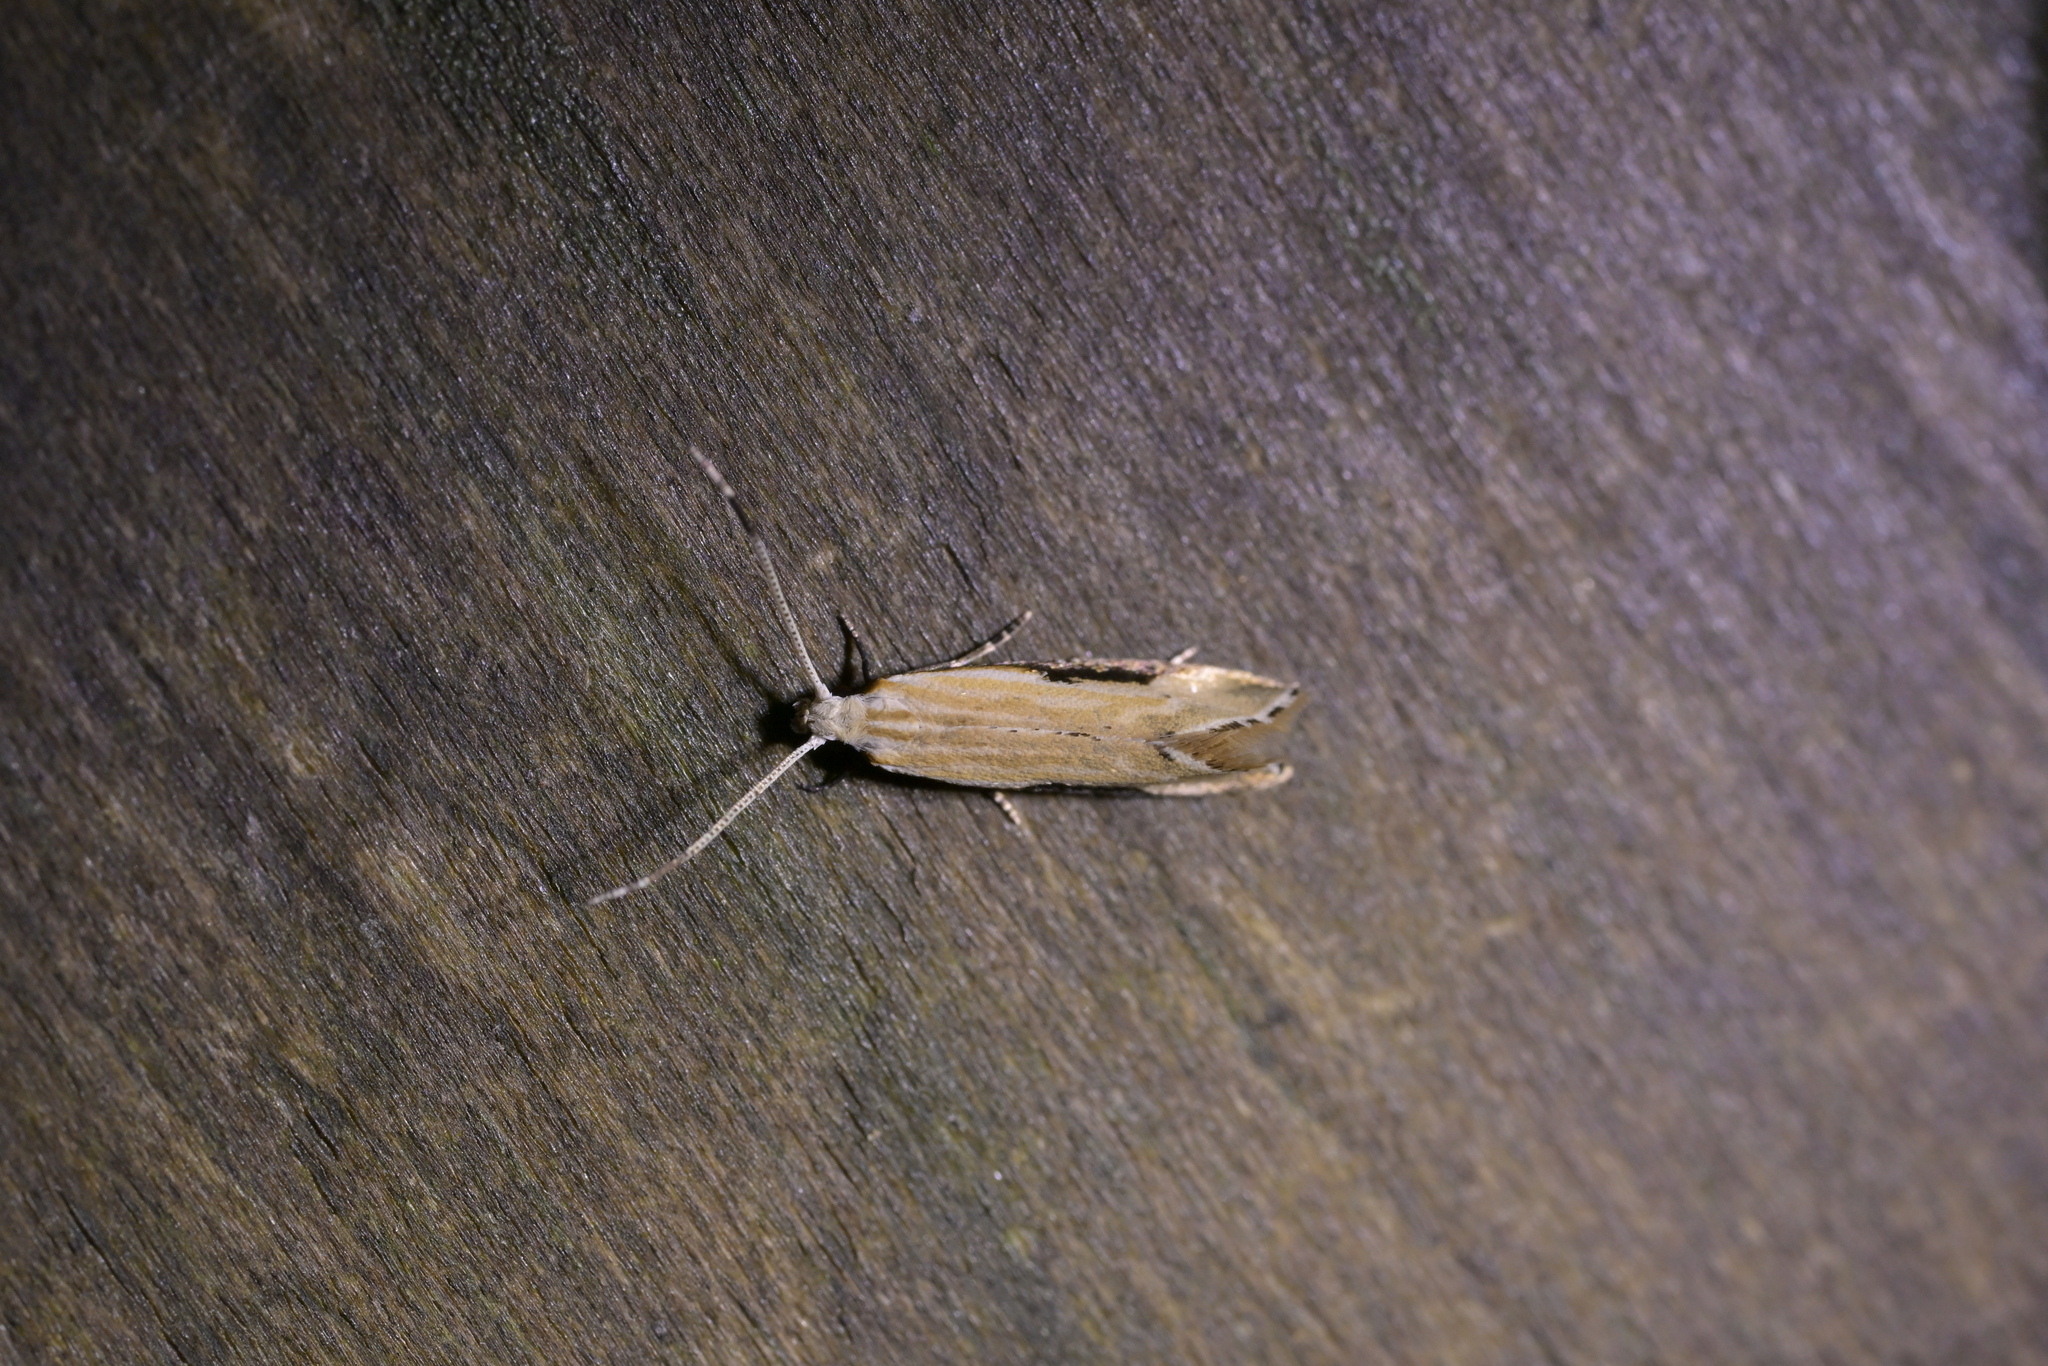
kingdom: Animalia
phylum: Arthropoda
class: Insecta
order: Lepidoptera
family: Tineidae
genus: Sagephora
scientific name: Sagephora phortegella
